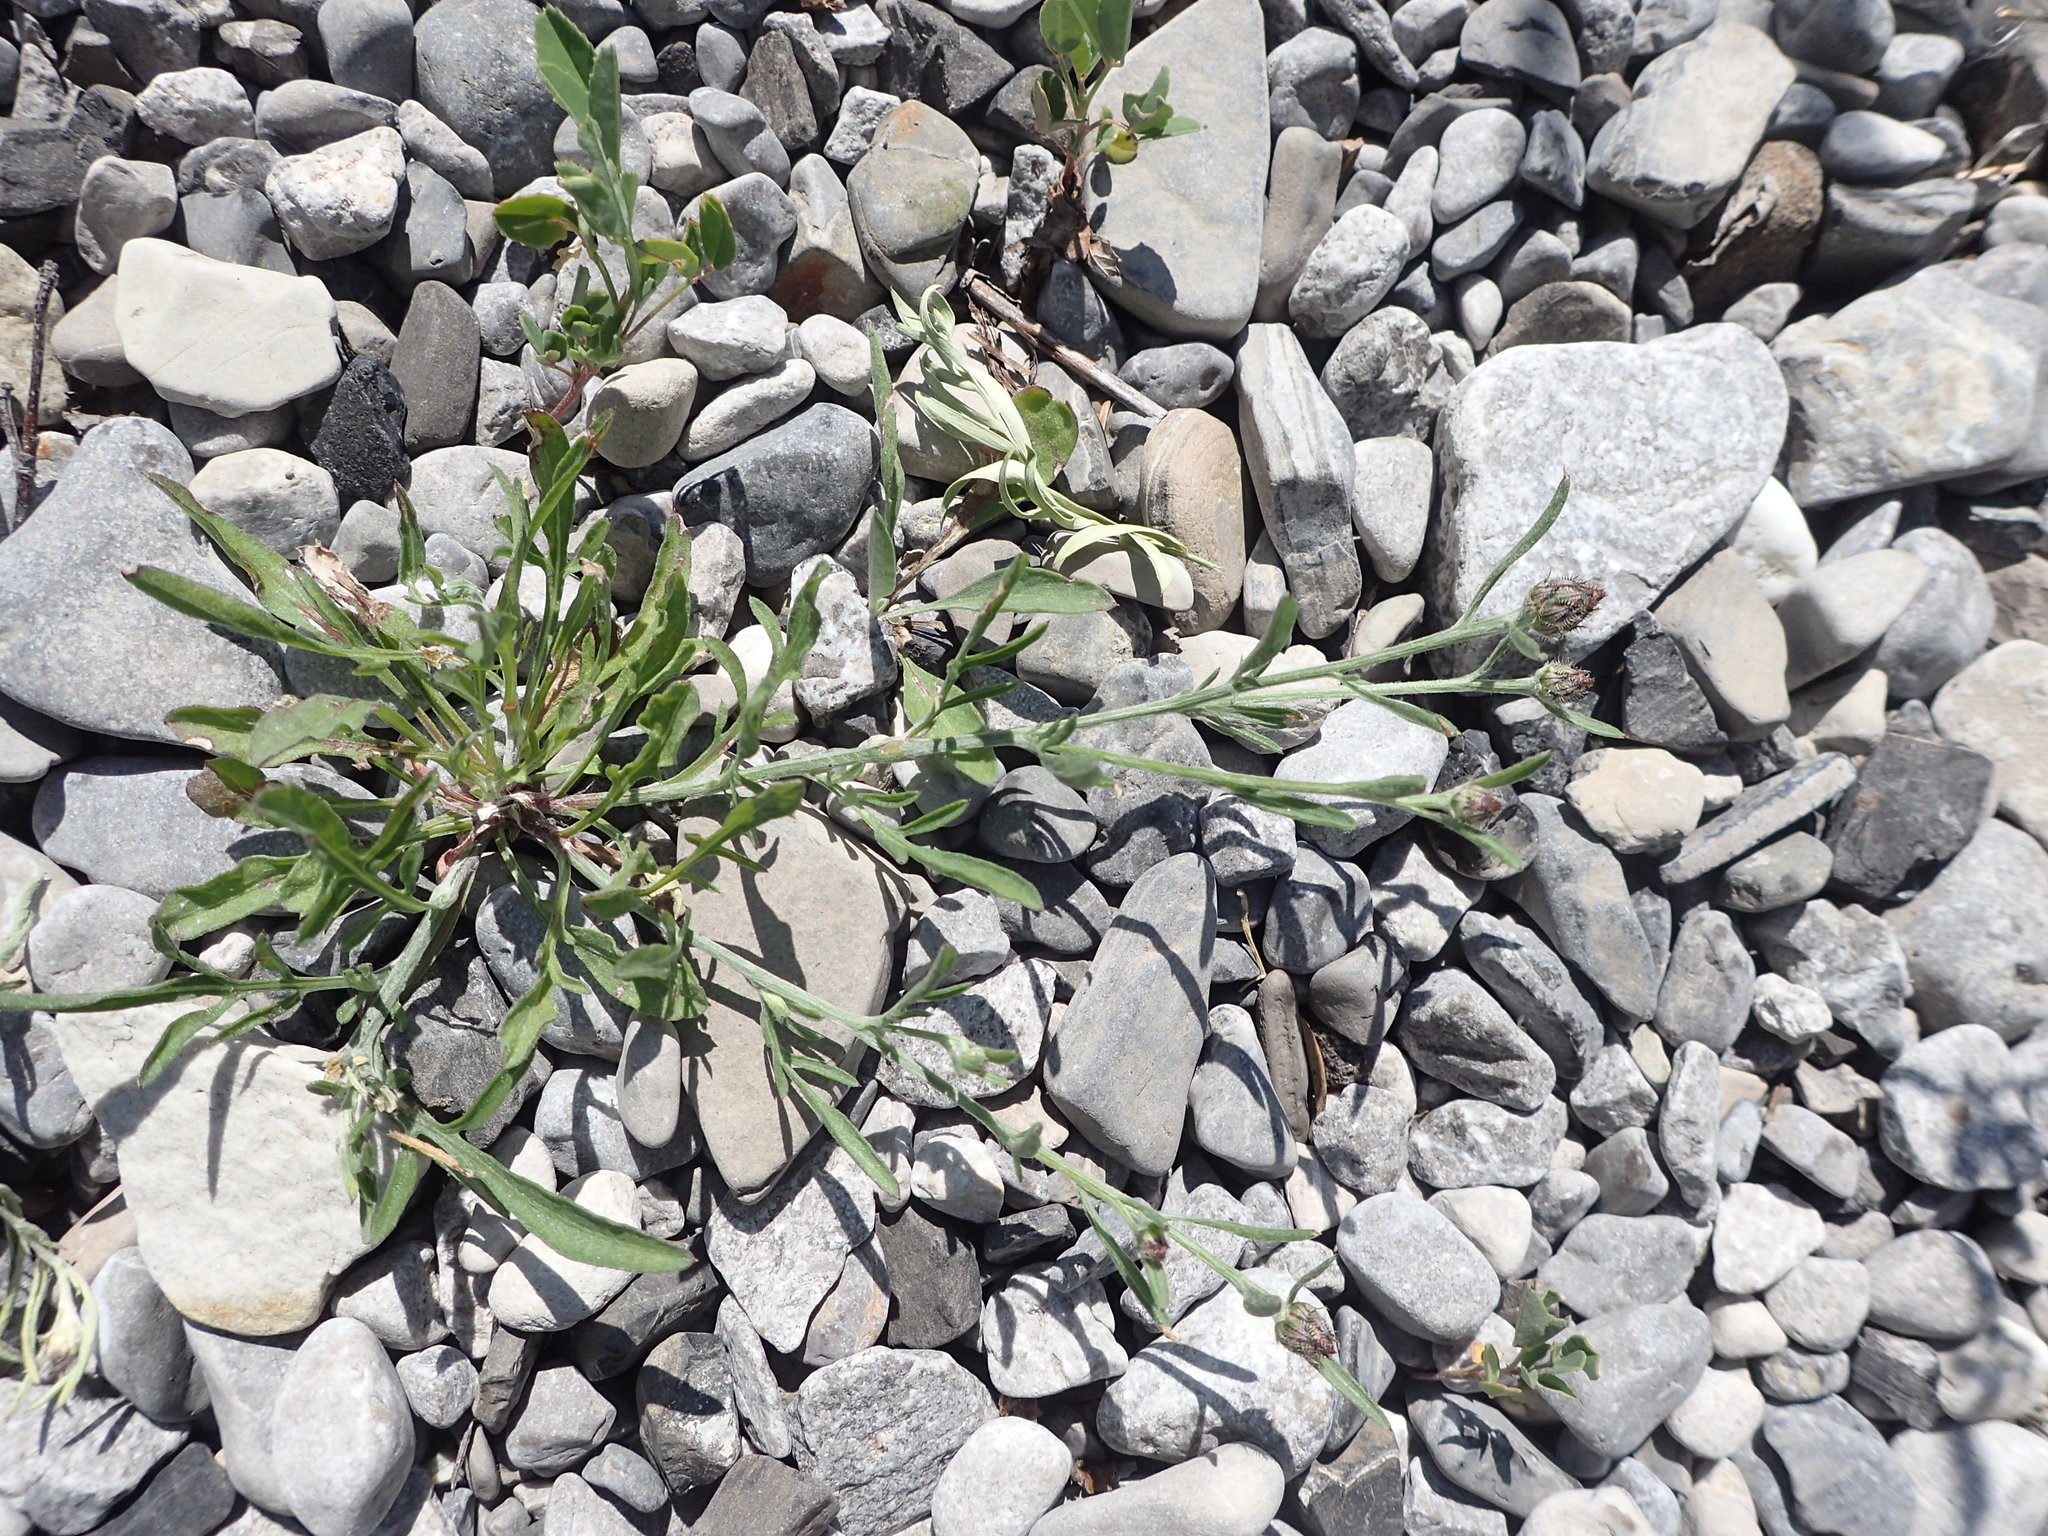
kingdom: Plantae
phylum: Tracheophyta
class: Magnoliopsida
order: Asterales
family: Asteraceae
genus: Centaurea
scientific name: Centaurea stoebe
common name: Spotted knapweed
